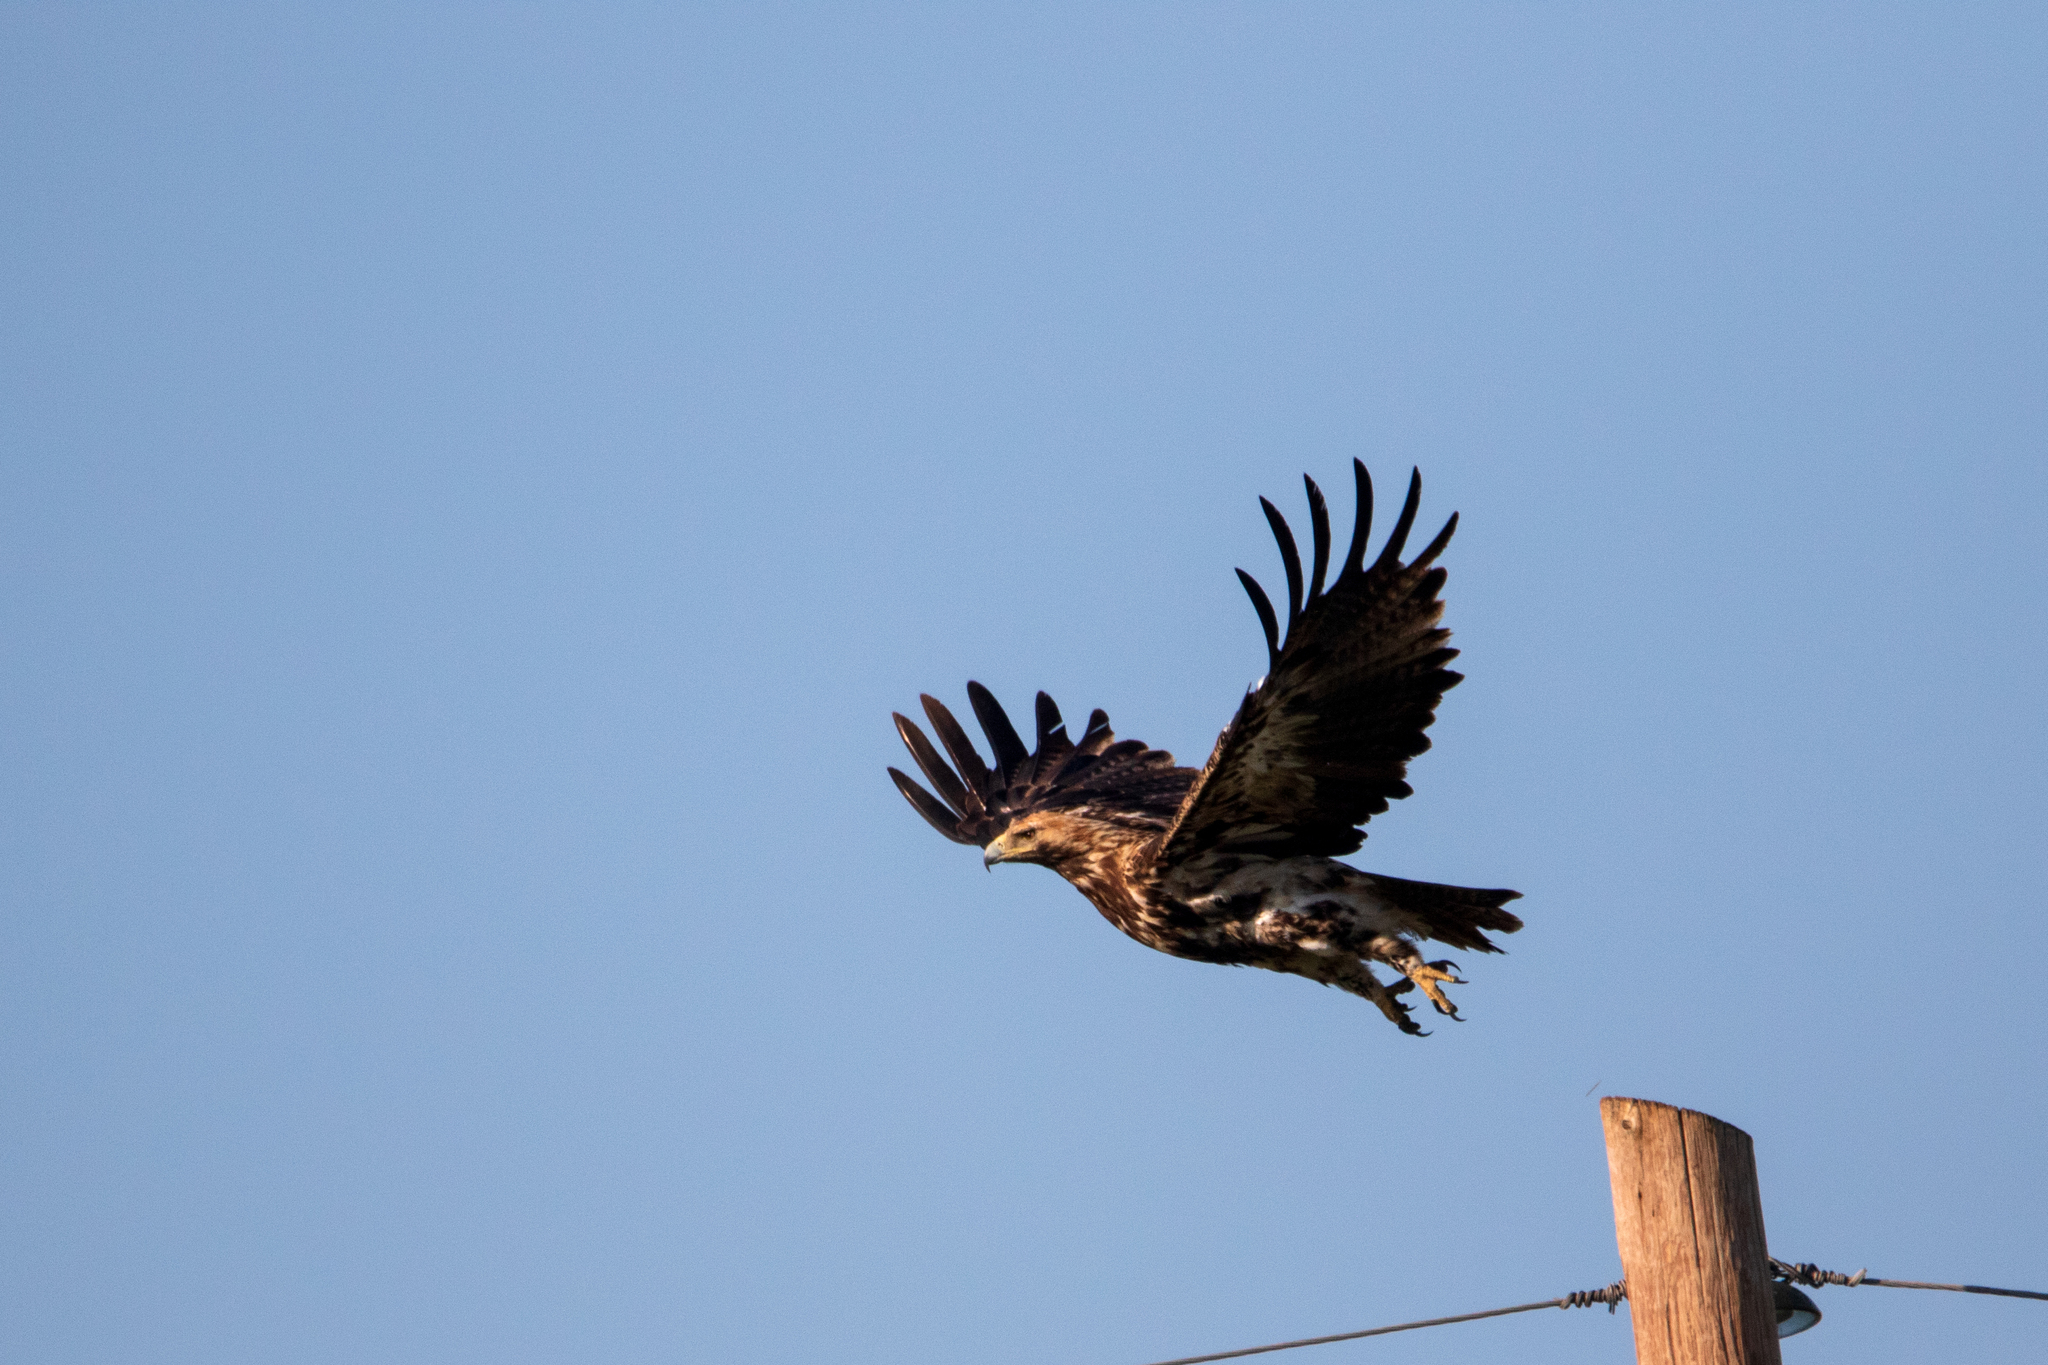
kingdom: Animalia
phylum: Chordata
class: Aves
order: Accipitriformes
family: Accipitridae
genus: Aquila
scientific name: Aquila heliaca
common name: Eastern imperial eagle
